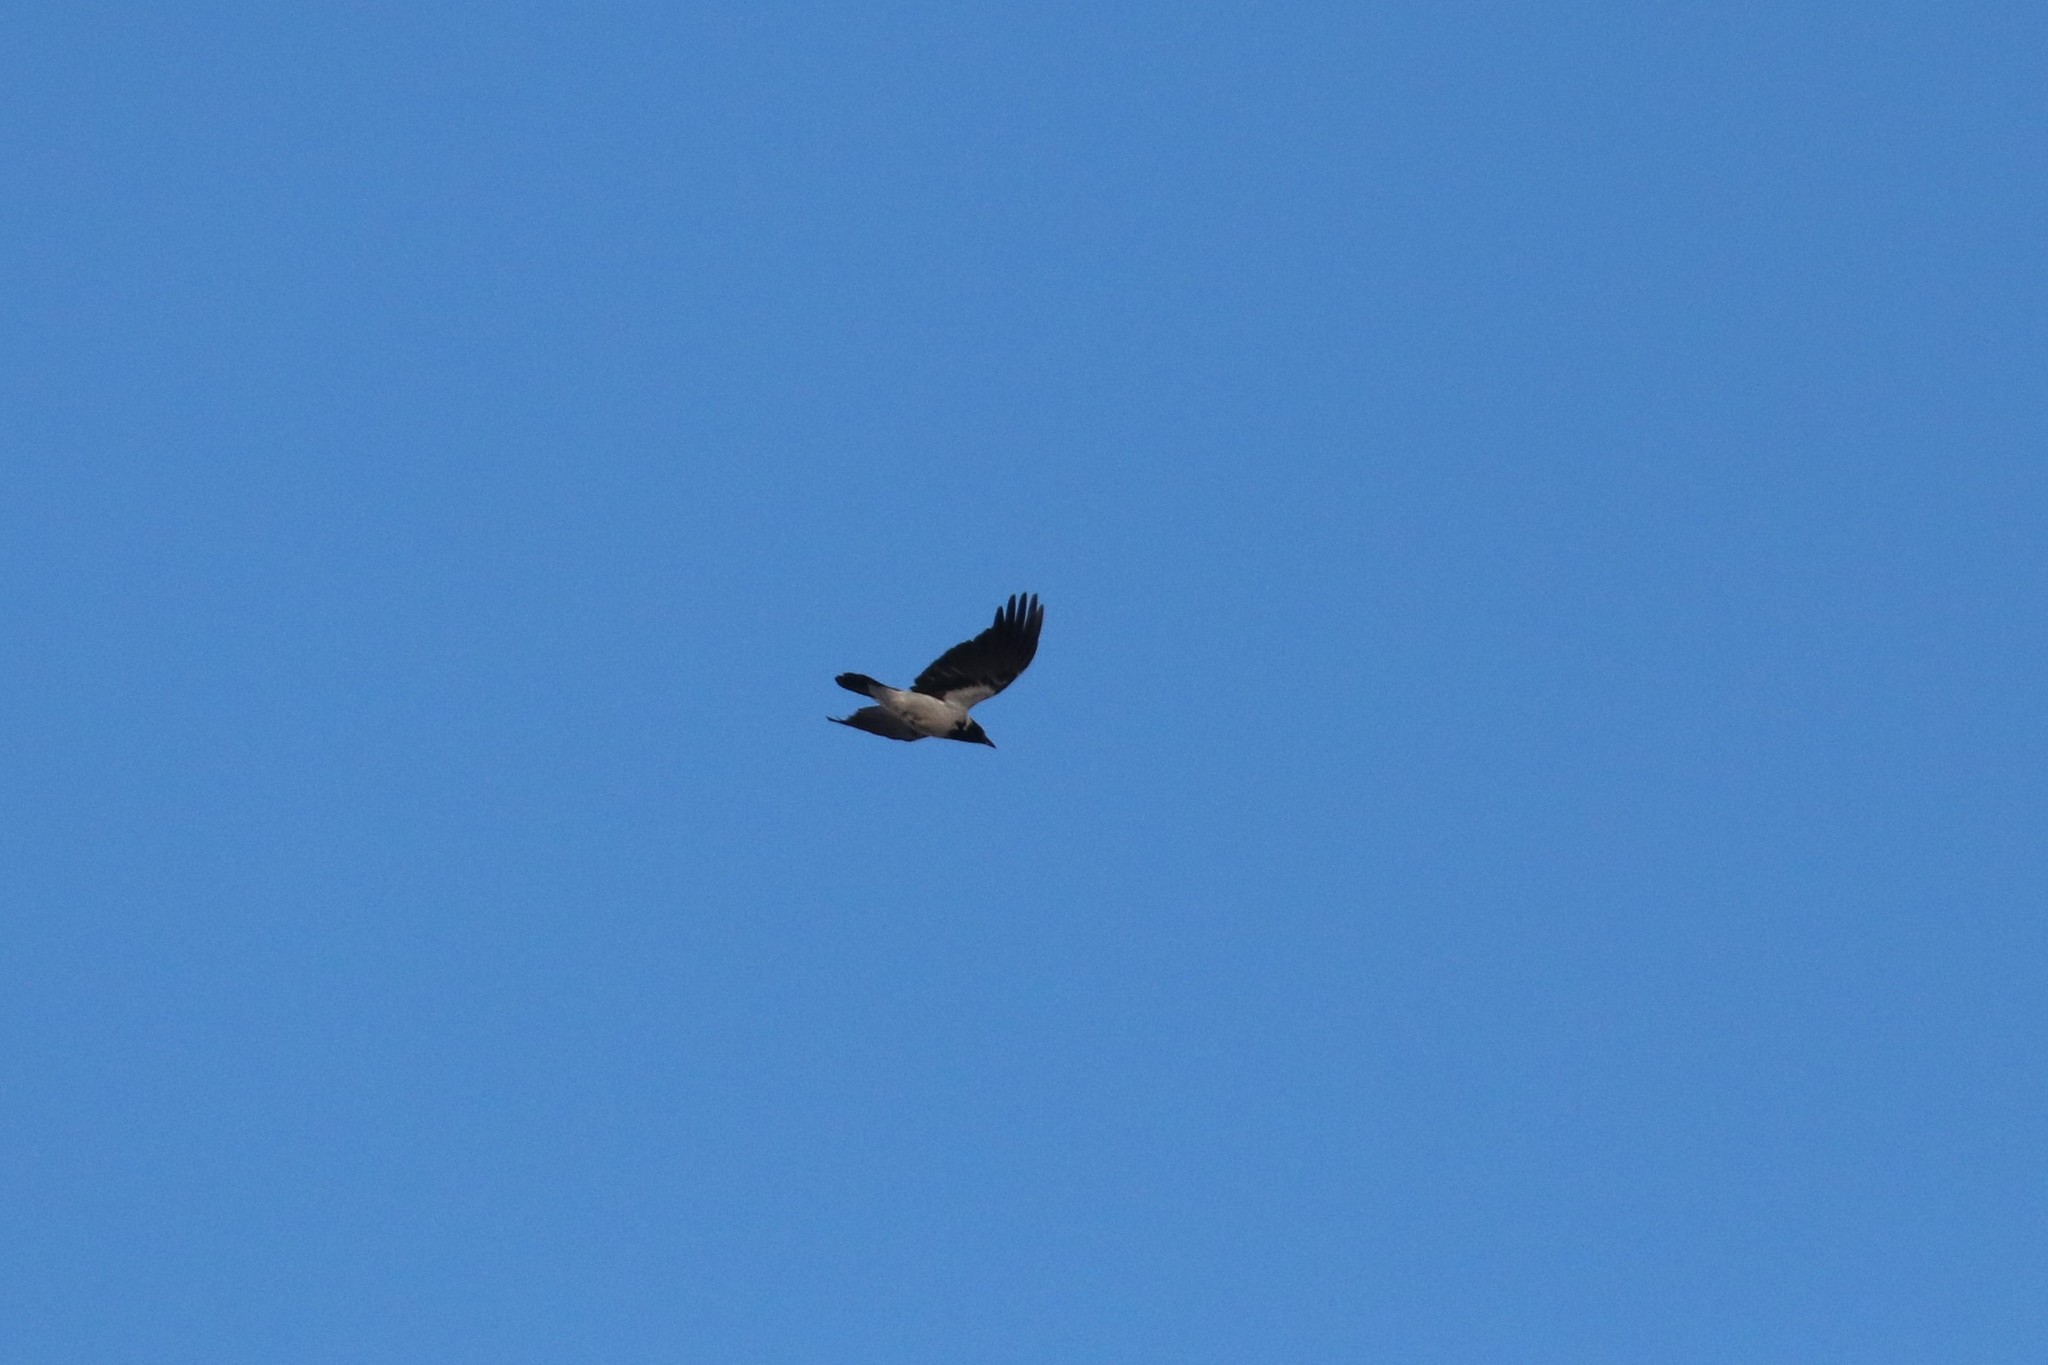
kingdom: Animalia
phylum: Chordata
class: Aves
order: Passeriformes
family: Corvidae
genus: Corvus
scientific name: Corvus cornix
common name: Hooded crow
